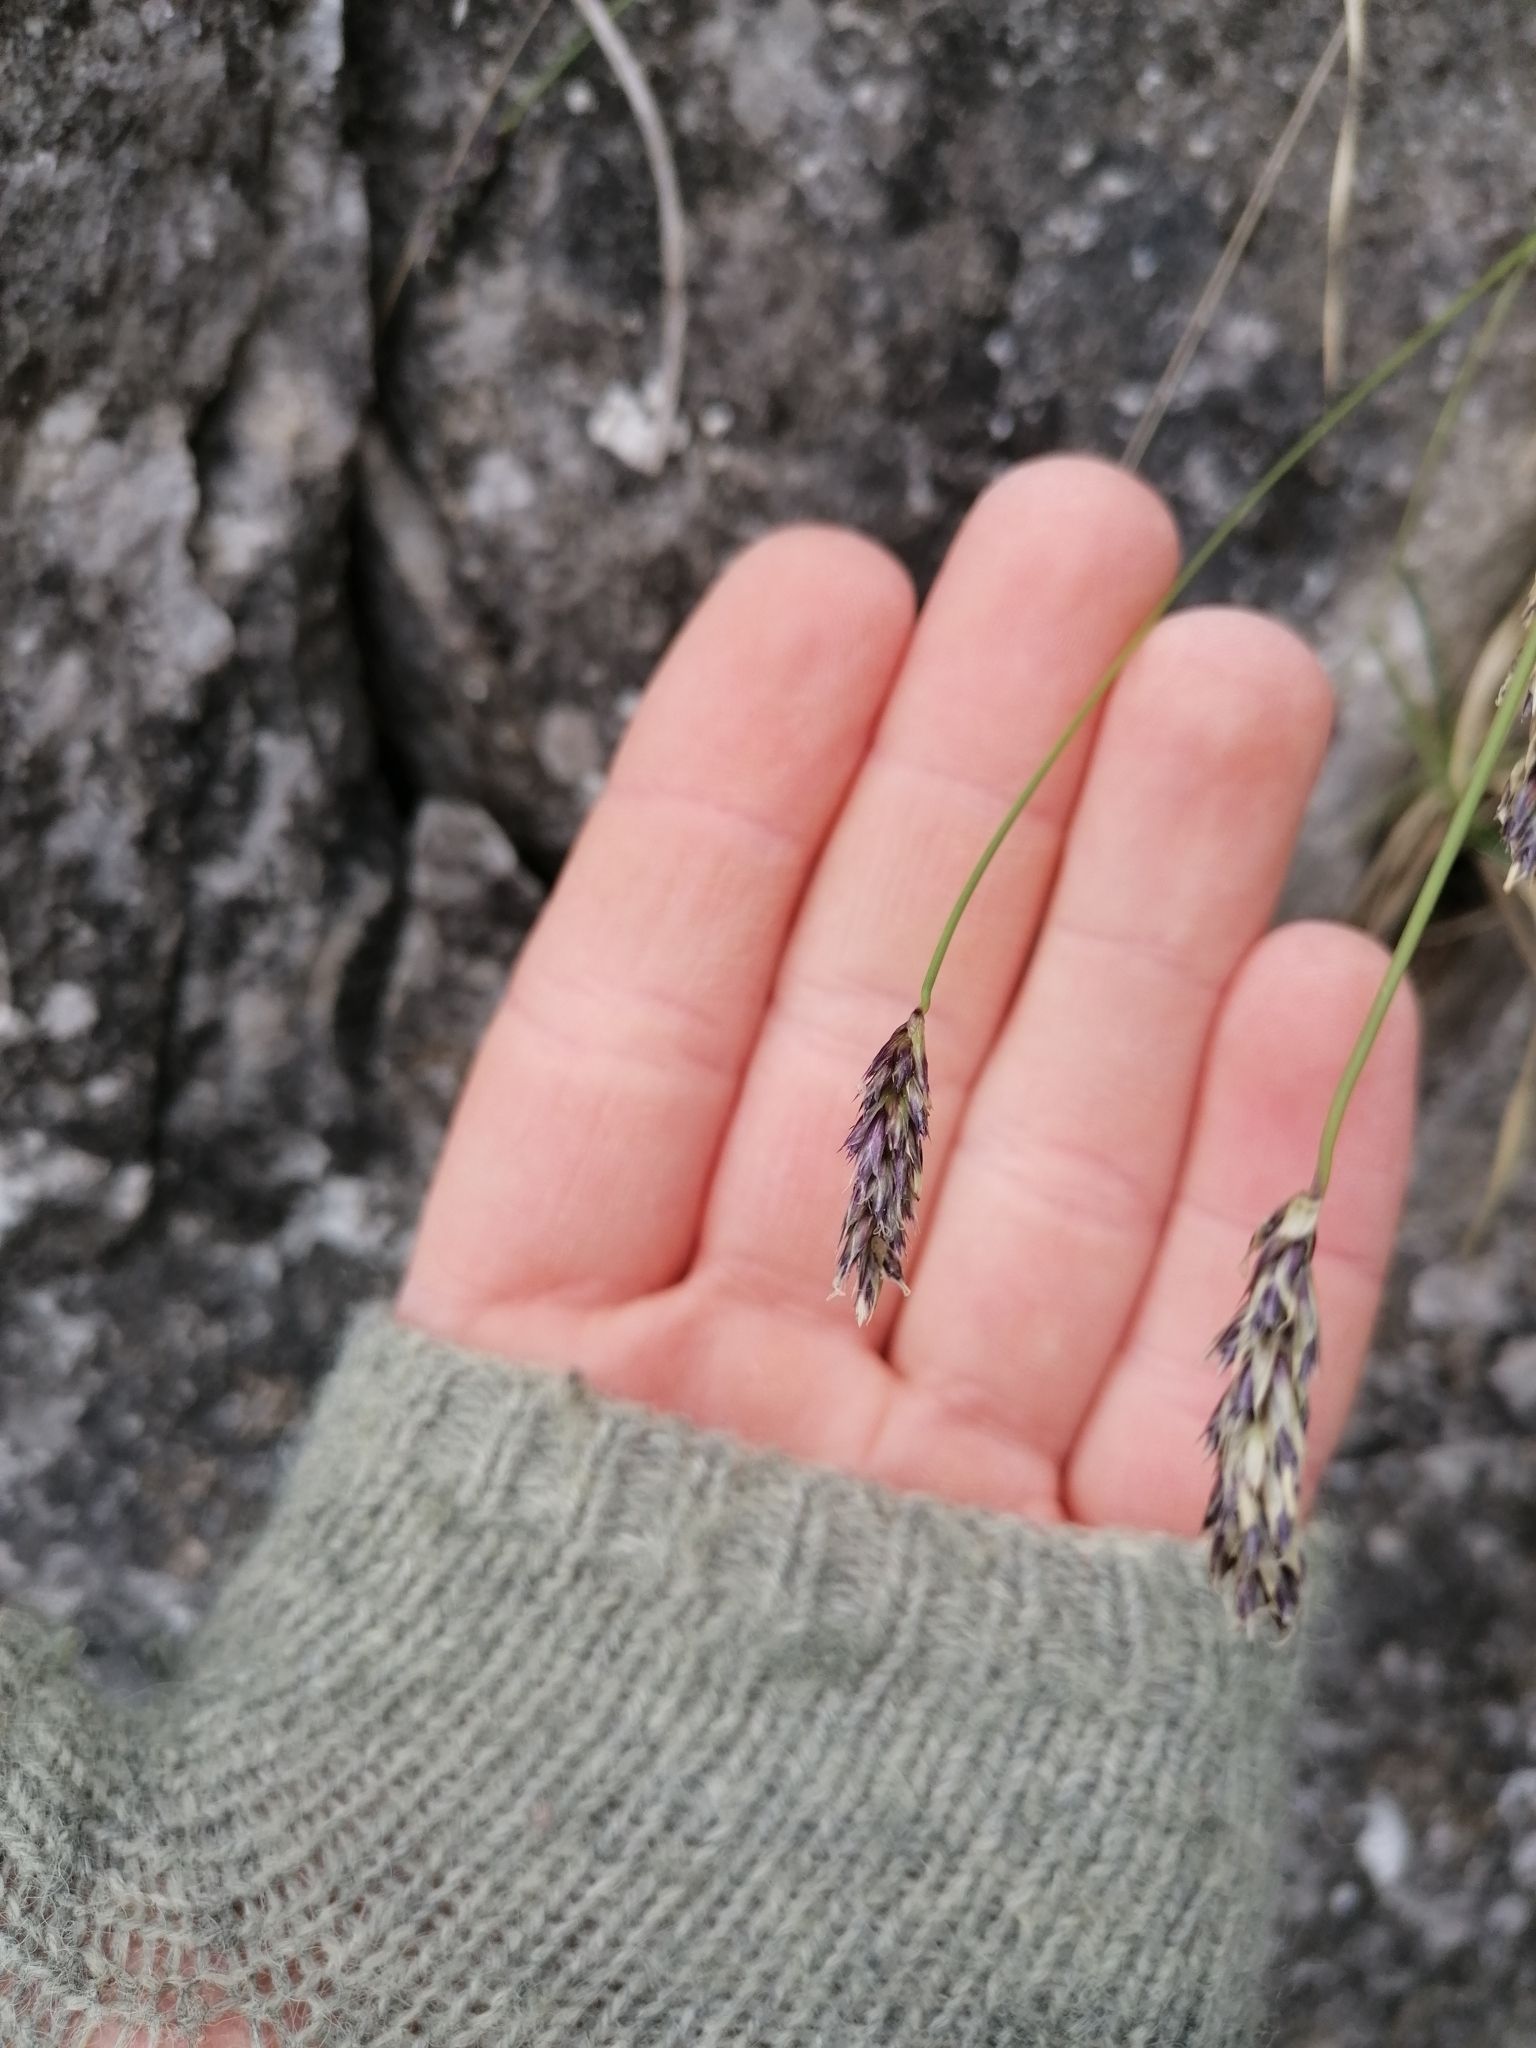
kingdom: Plantae
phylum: Tracheophyta
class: Liliopsida
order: Poales
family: Poaceae
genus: Sesleria
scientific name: Sesleria caerulea
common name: Blue moor-grass
